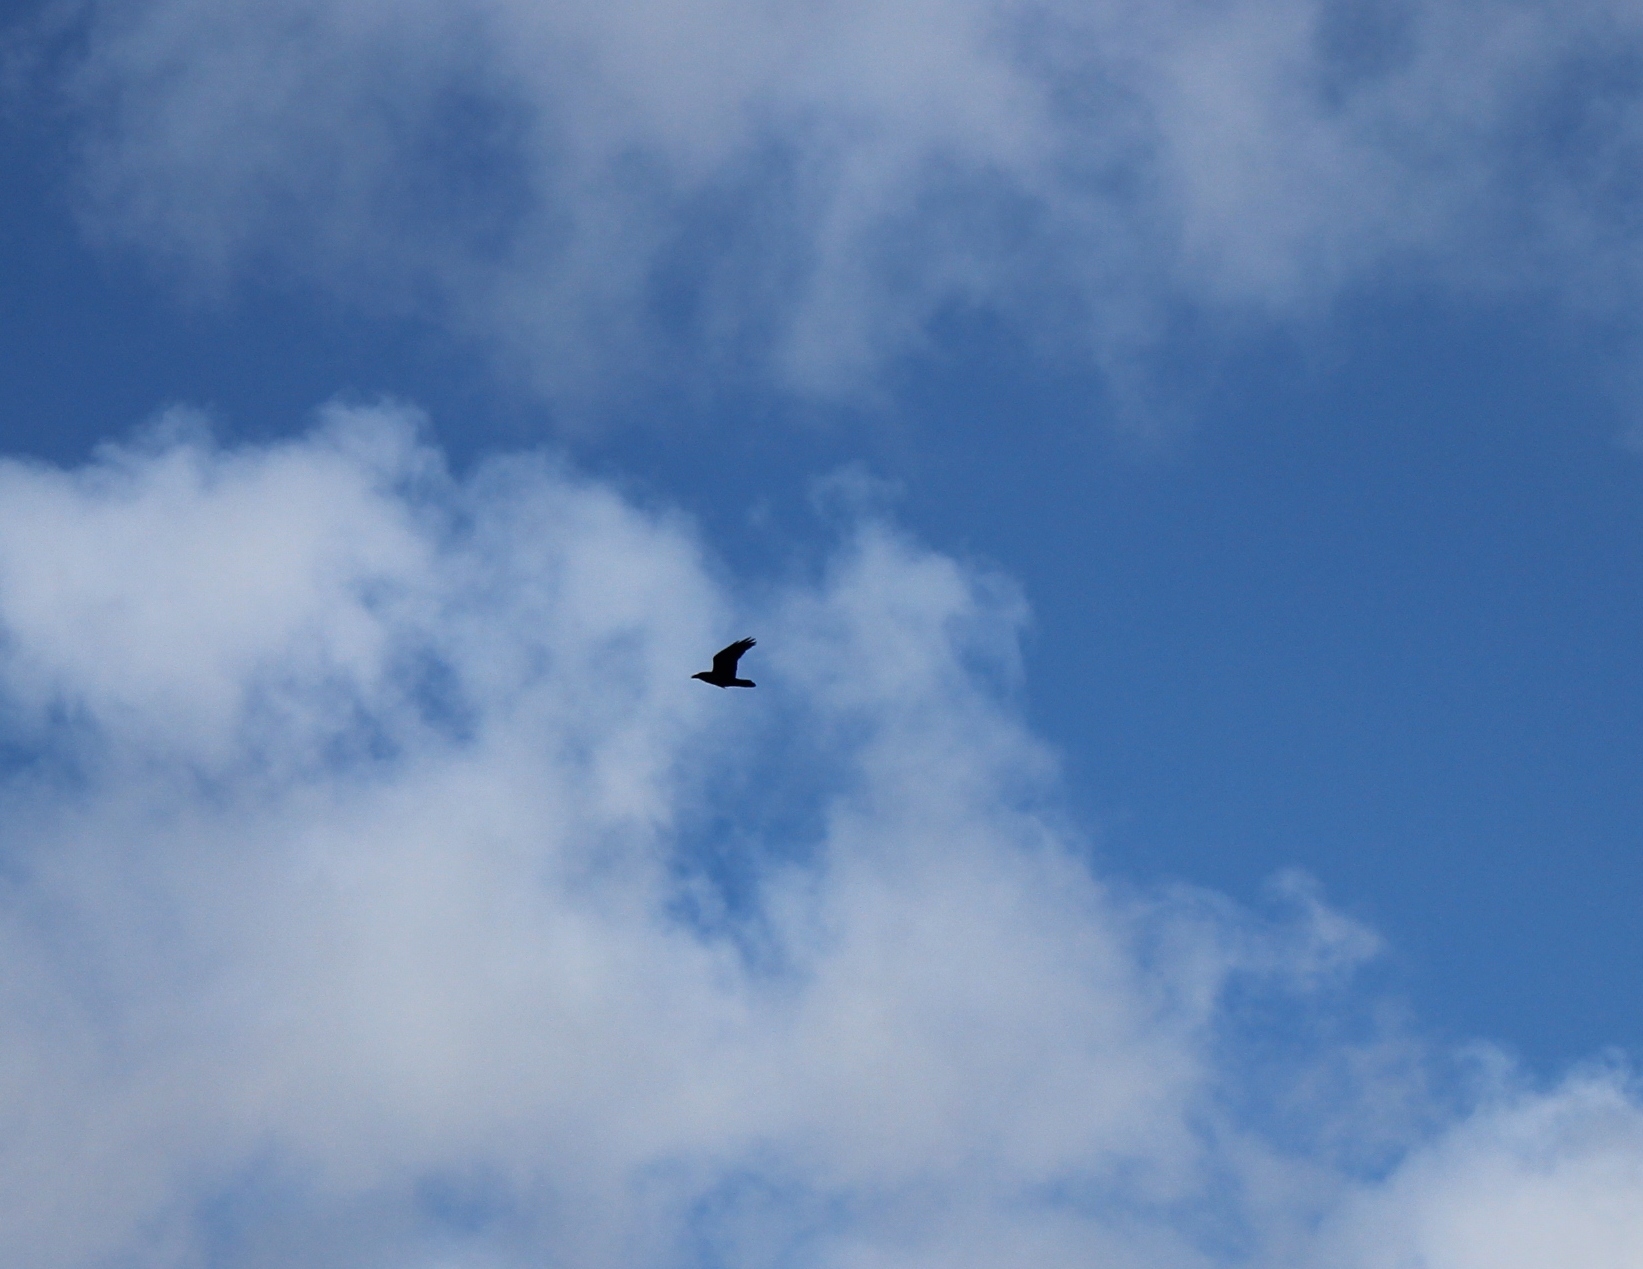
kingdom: Animalia
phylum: Chordata
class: Aves
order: Passeriformes
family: Corvidae
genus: Corvus
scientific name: Corvus corax
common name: Common raven
